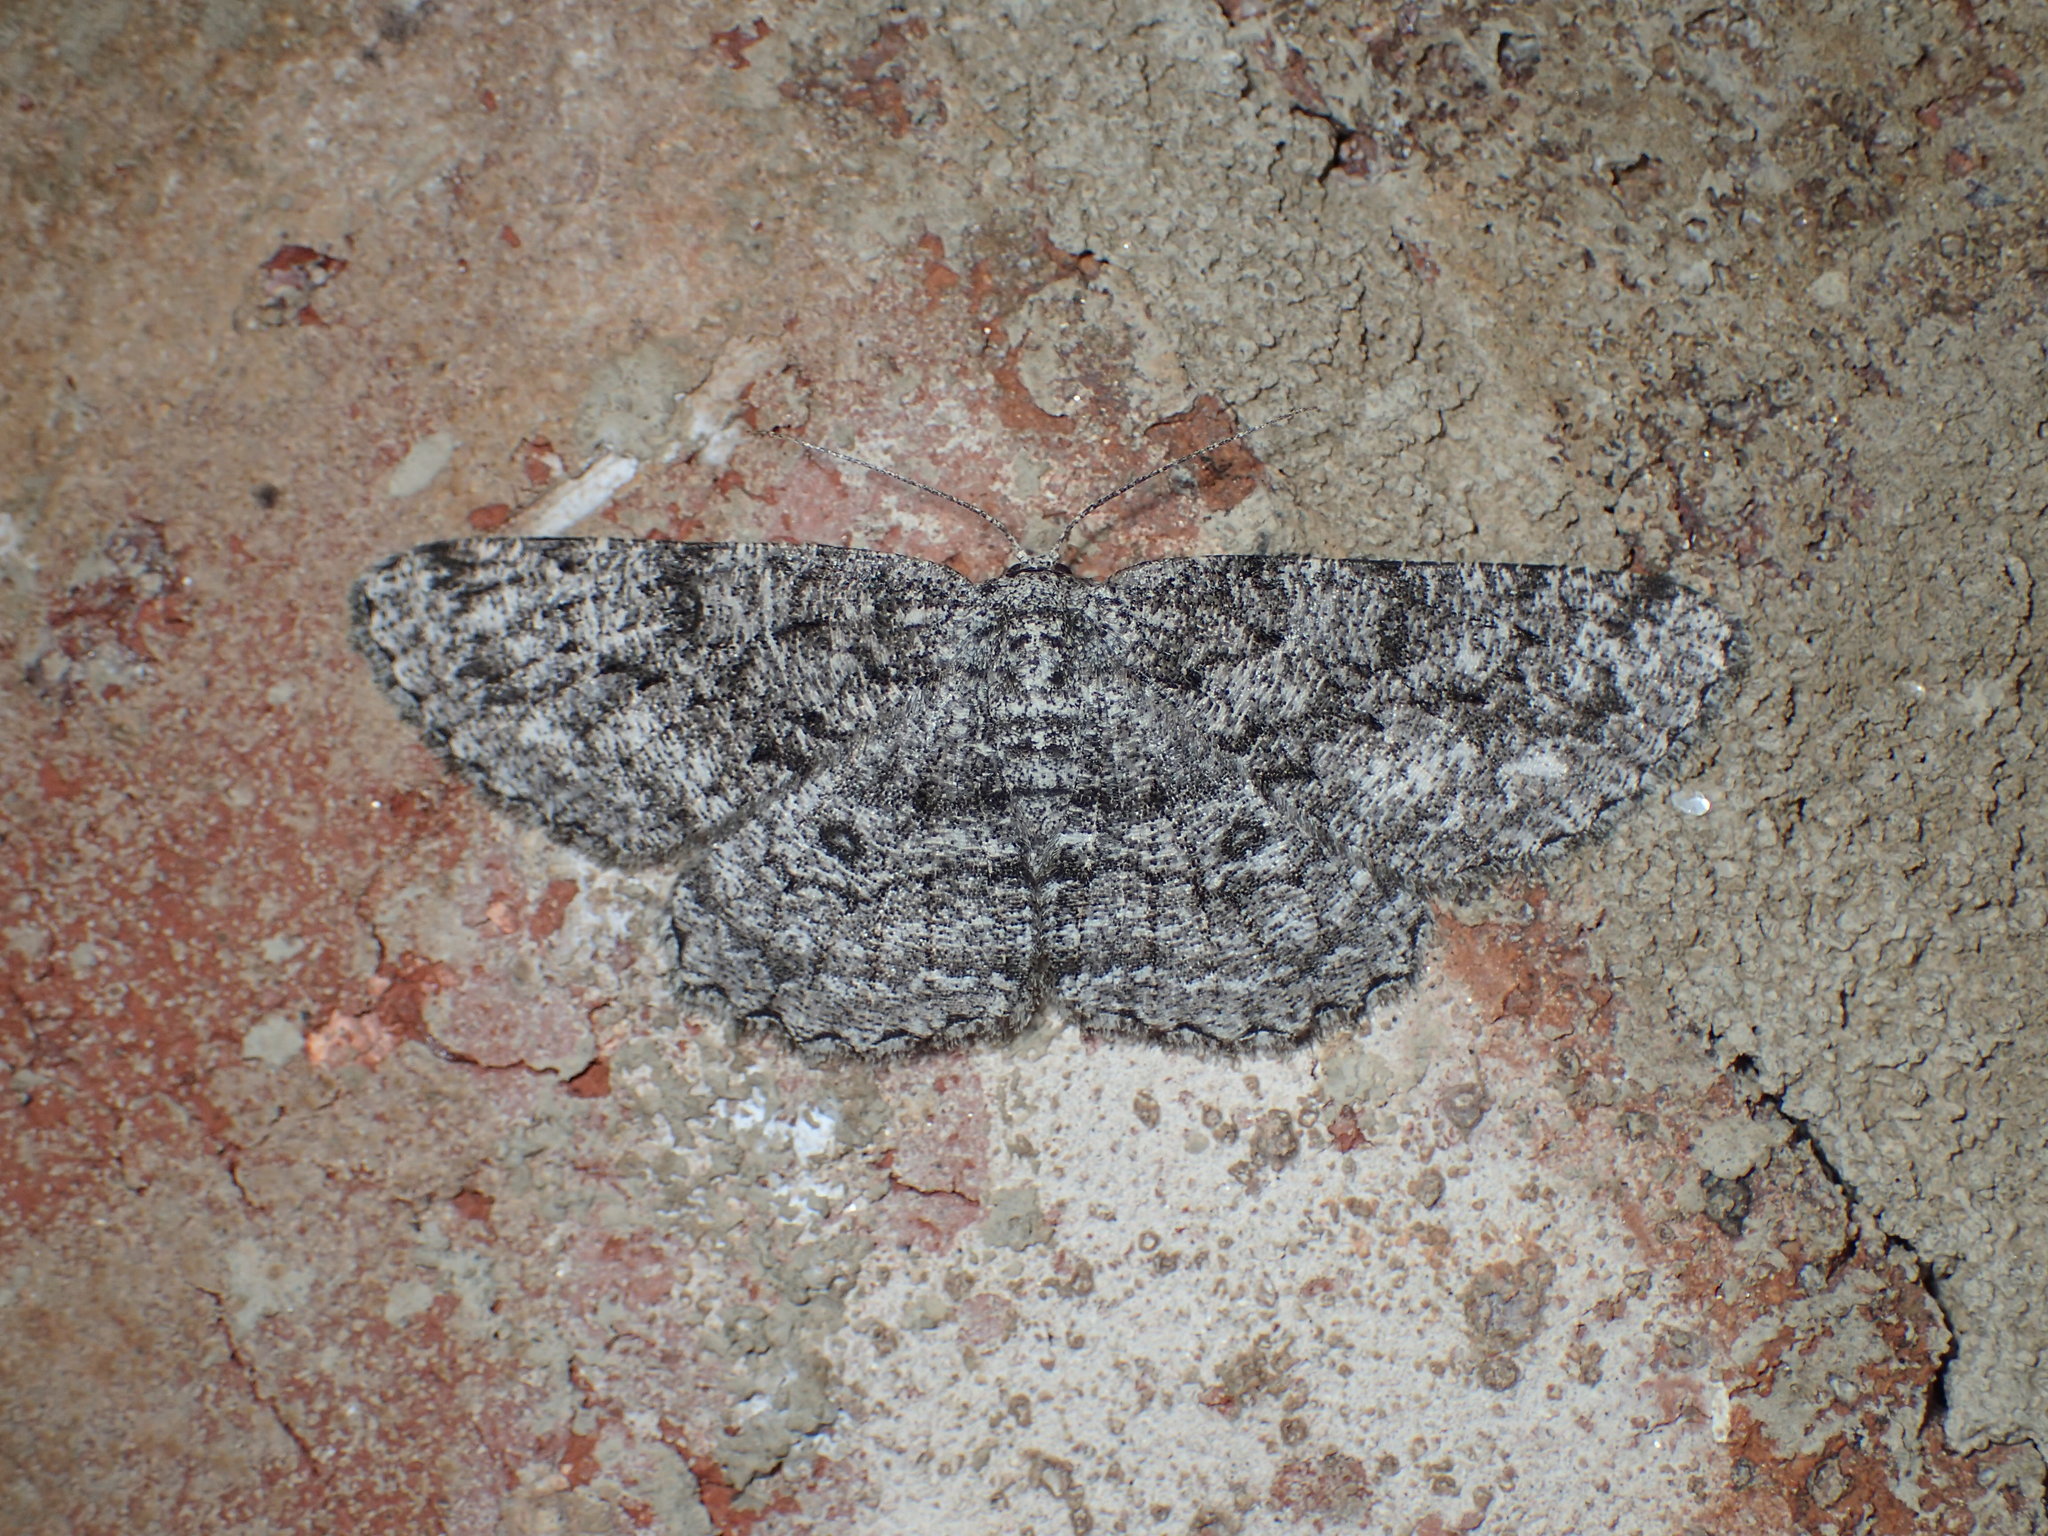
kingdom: Animalia
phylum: Arthropoda
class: Insecta
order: Lepidoptera
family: Geometridae
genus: Hypomecis
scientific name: Hypomecis umbrosaria
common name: Umber moth
